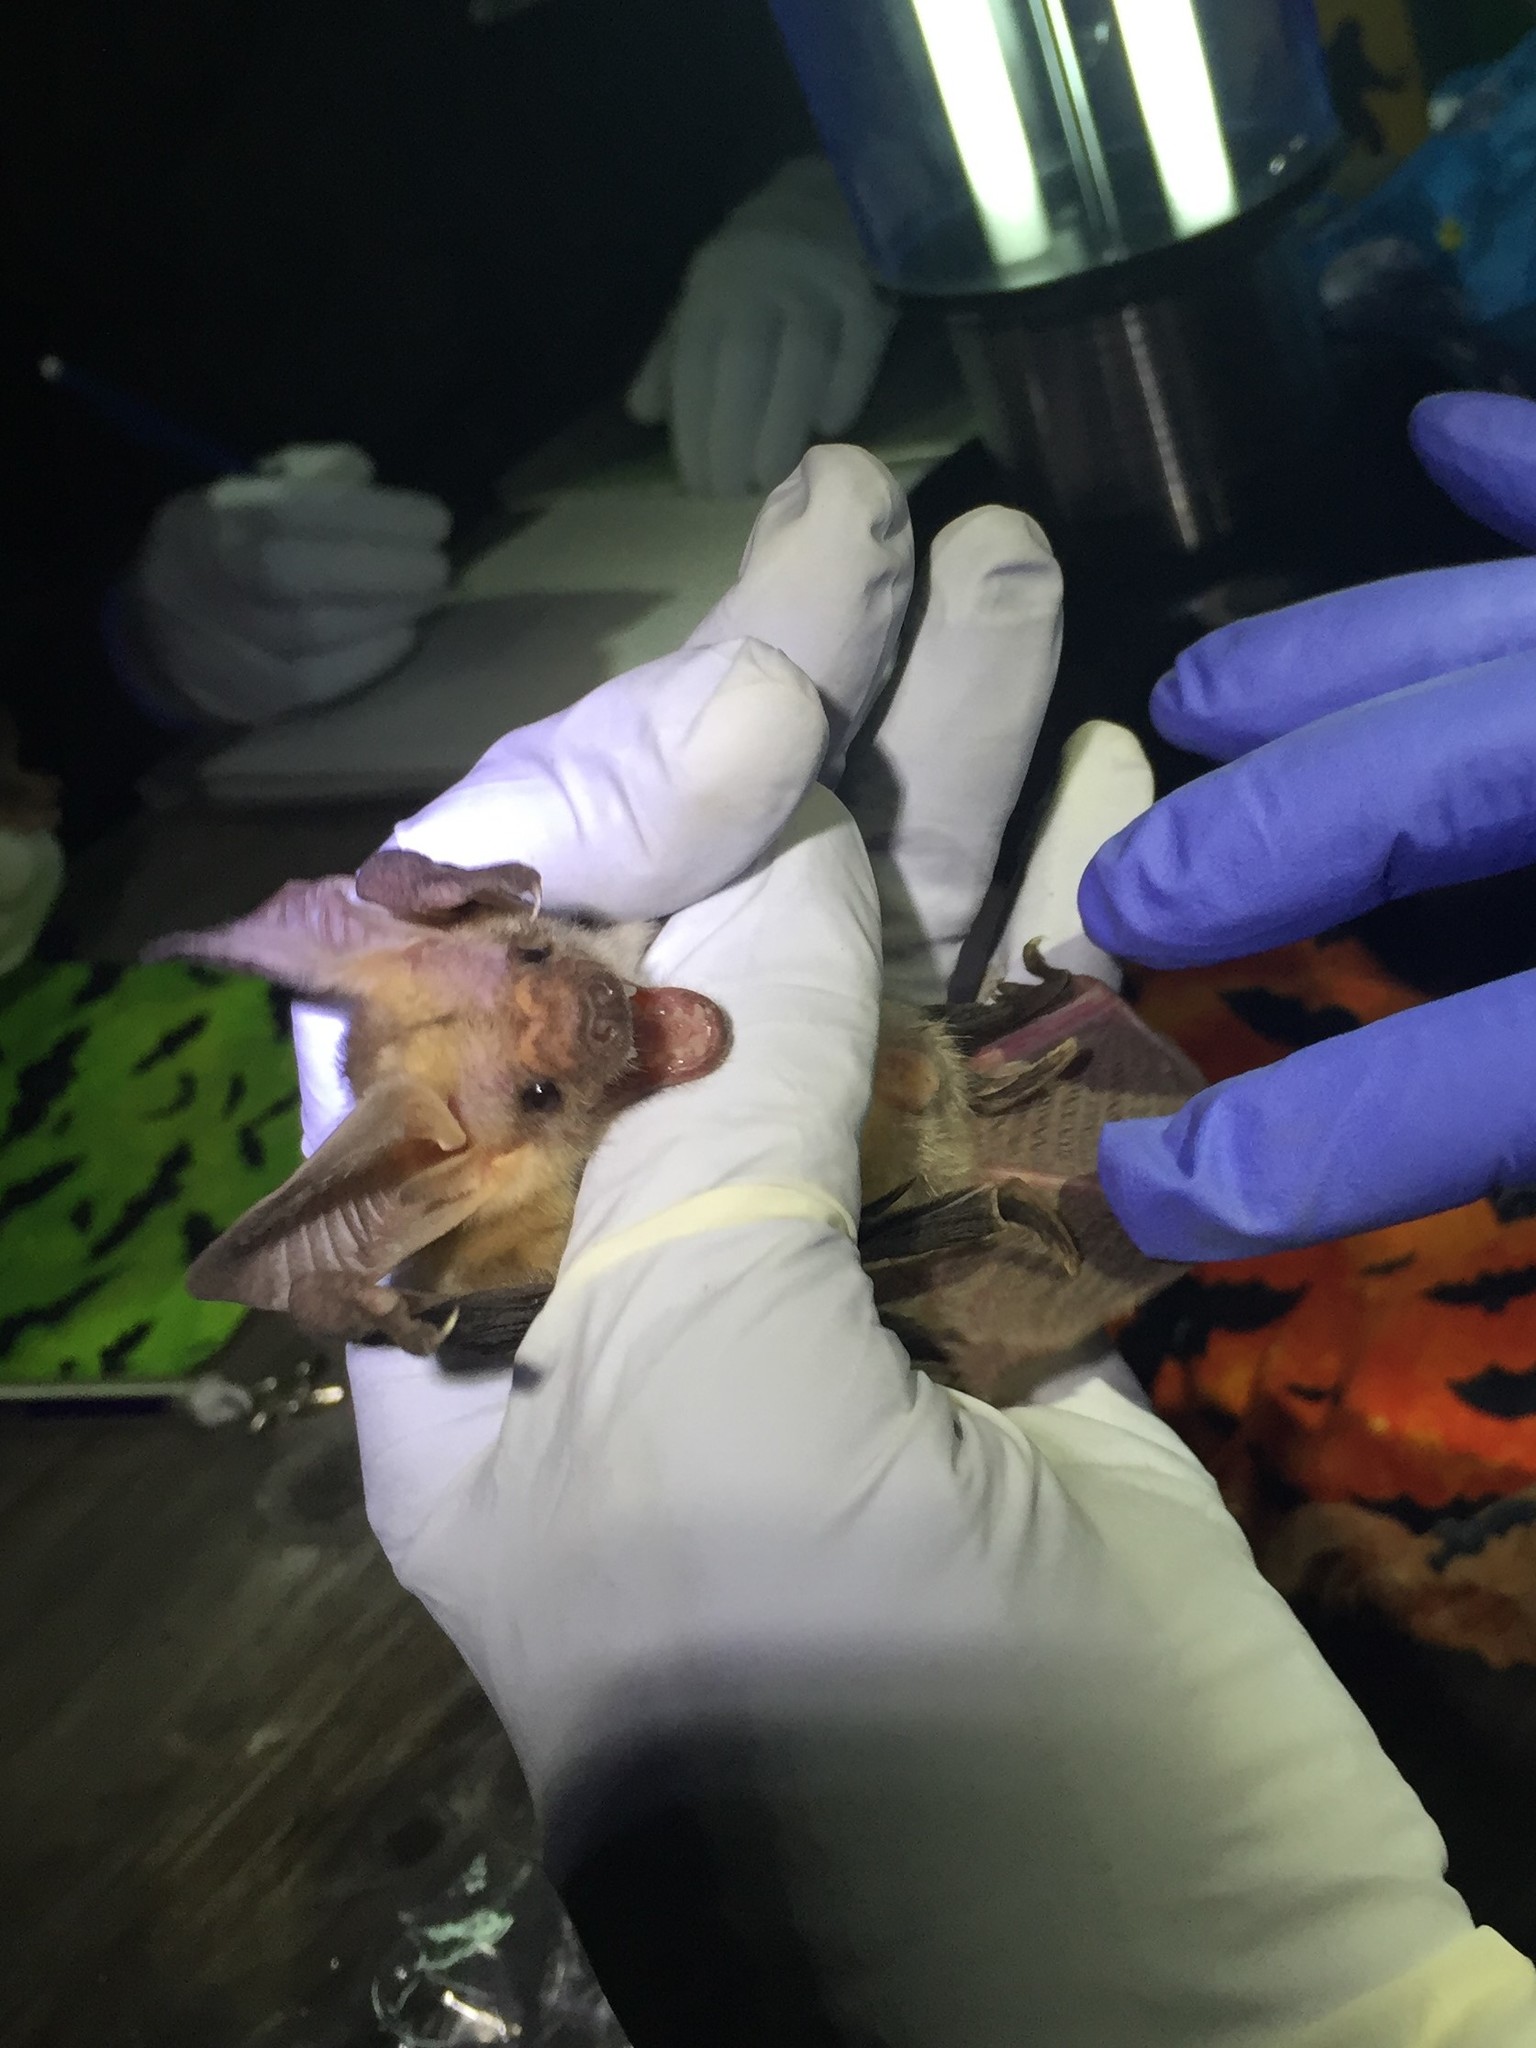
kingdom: Animalia
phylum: Chordata
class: Mammalia
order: Chiroptera
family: Vespertilionidae
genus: Antrozous
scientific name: Antrozous pallidus
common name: Pallid bat
